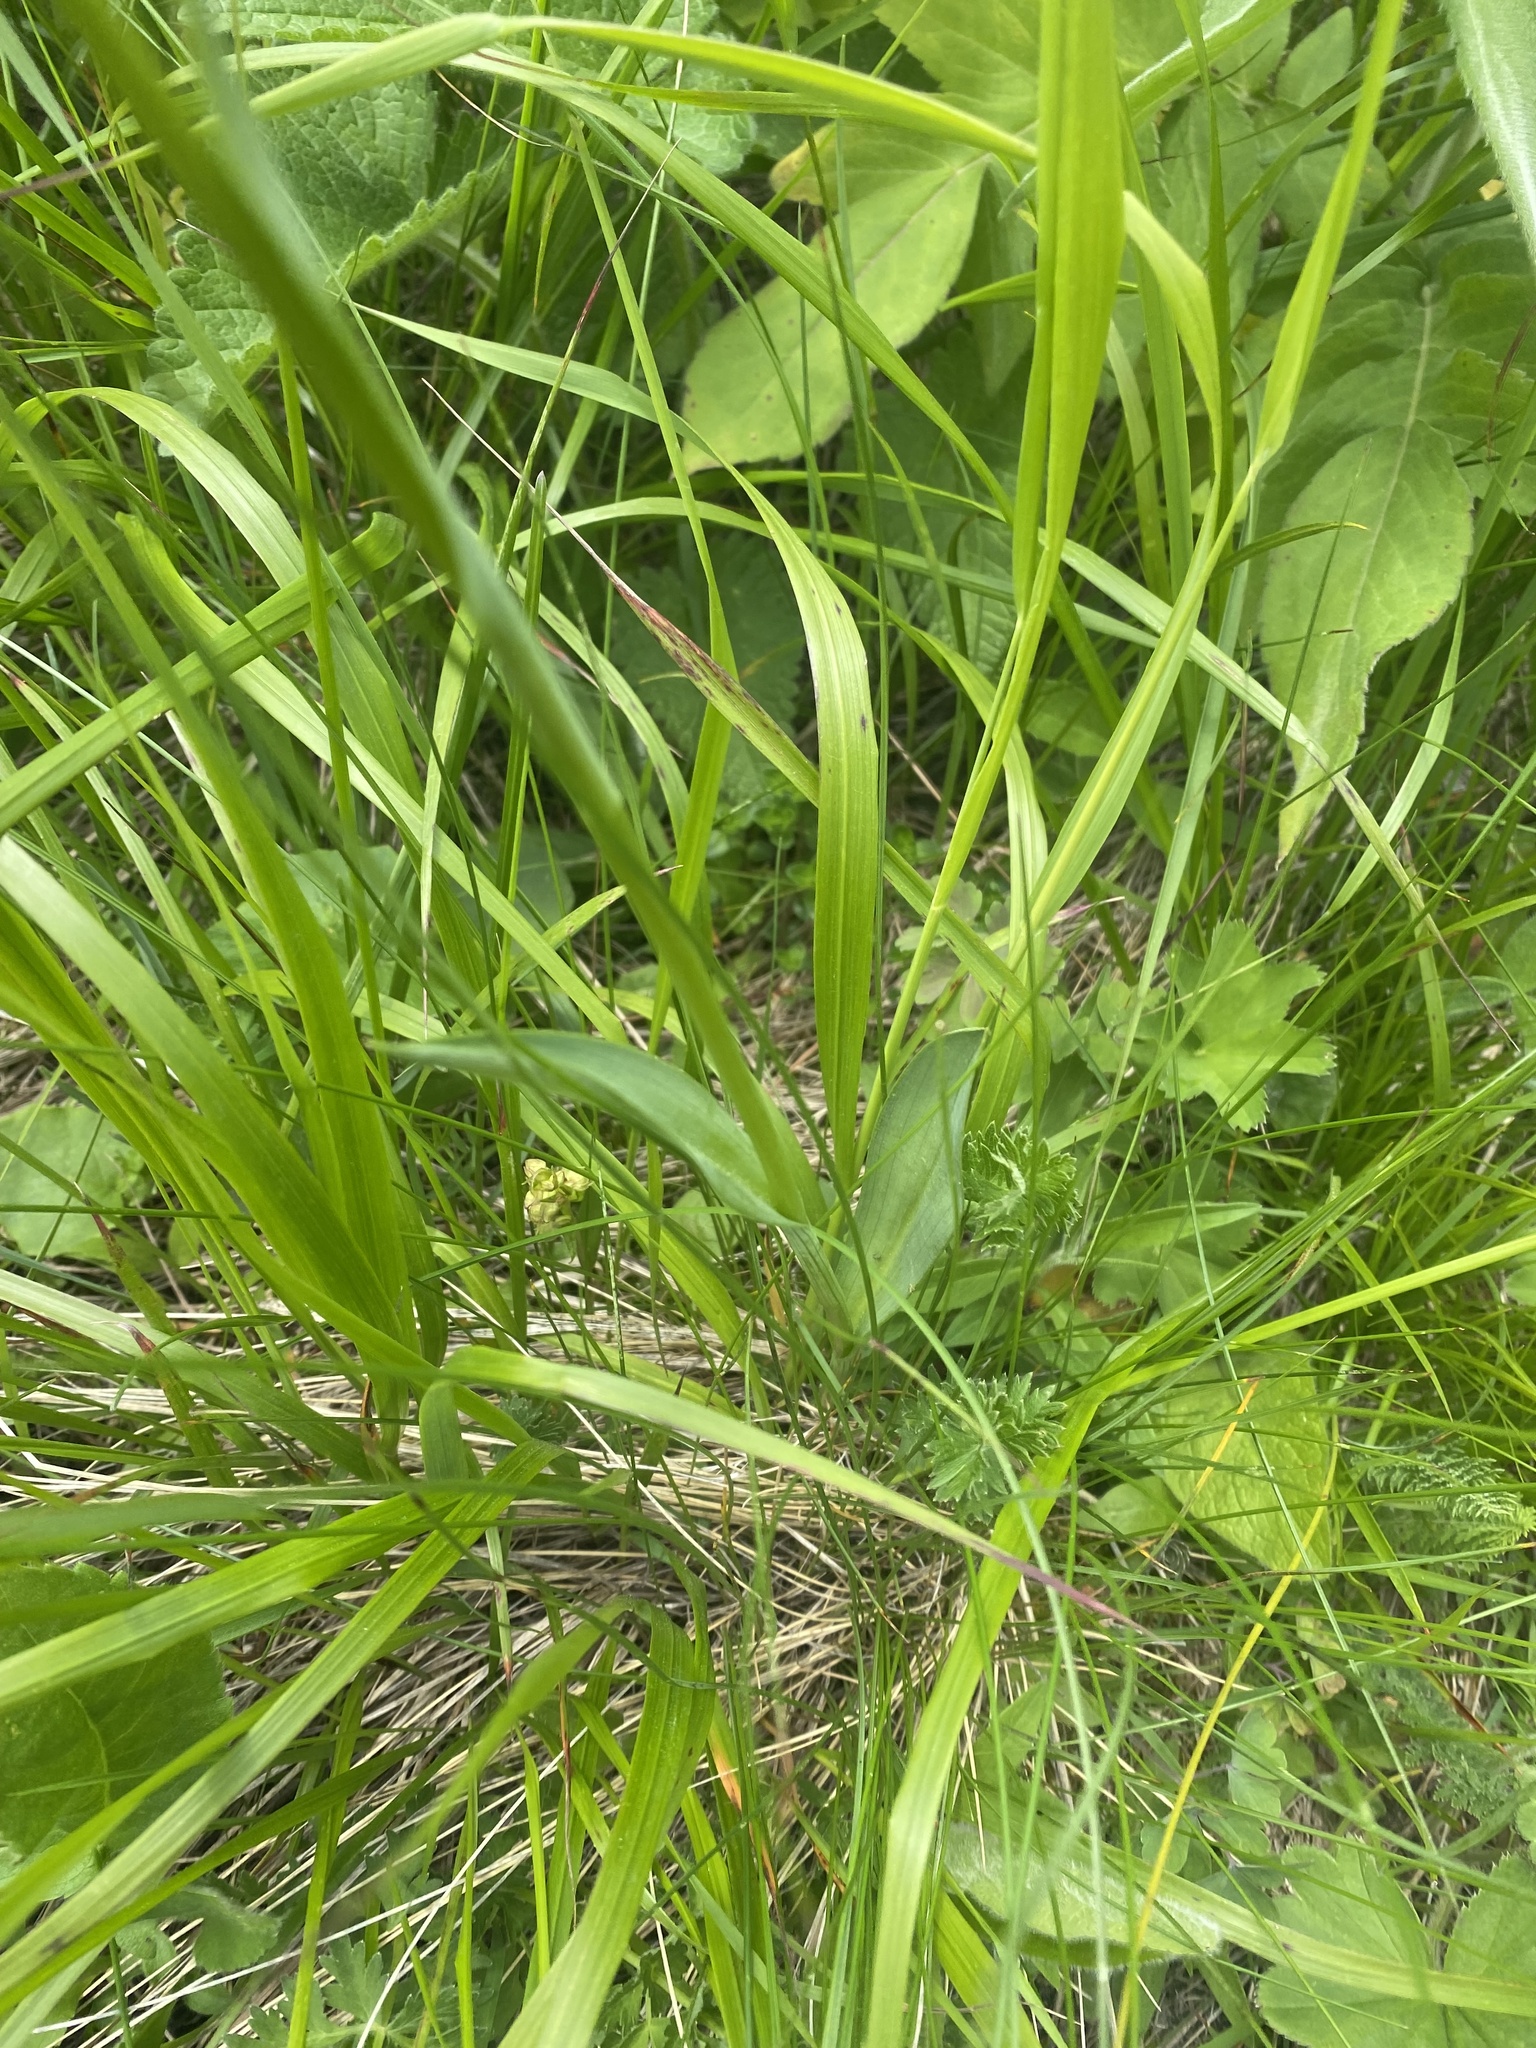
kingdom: Plantae
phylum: Tracheophyta
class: Liliopsida
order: Asparagales
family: Orchidaceae
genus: Traunsteinera
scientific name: Traunsteinera sphaerica
